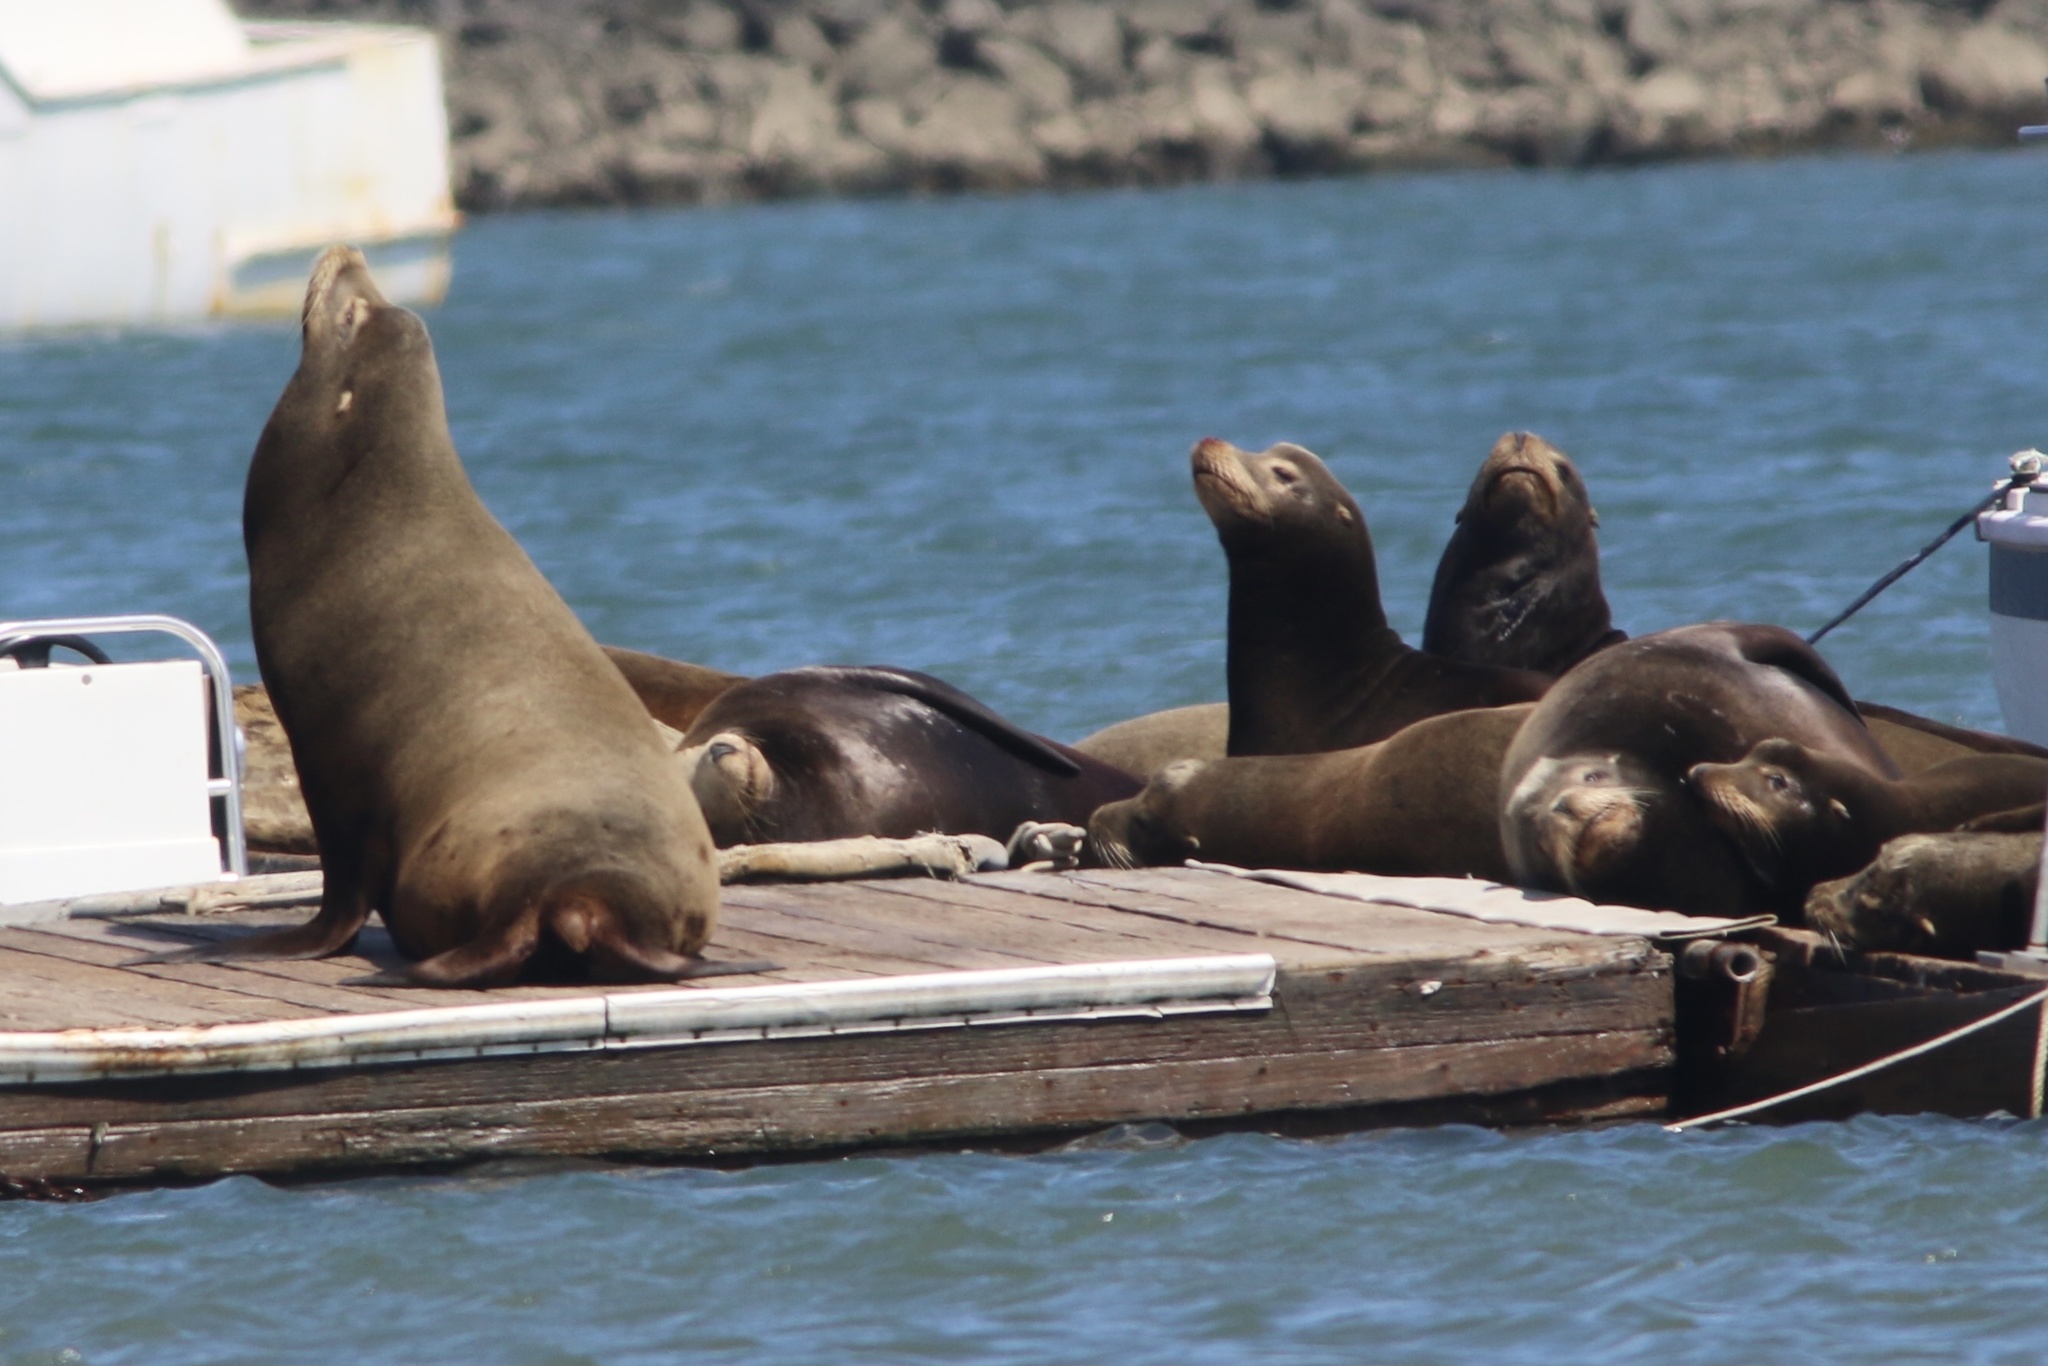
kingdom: Animalia
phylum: Chordata
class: Mammalia
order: Carnivora
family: Otariidae
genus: Zalophus
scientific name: Zalophus californianus
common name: California sea lion
